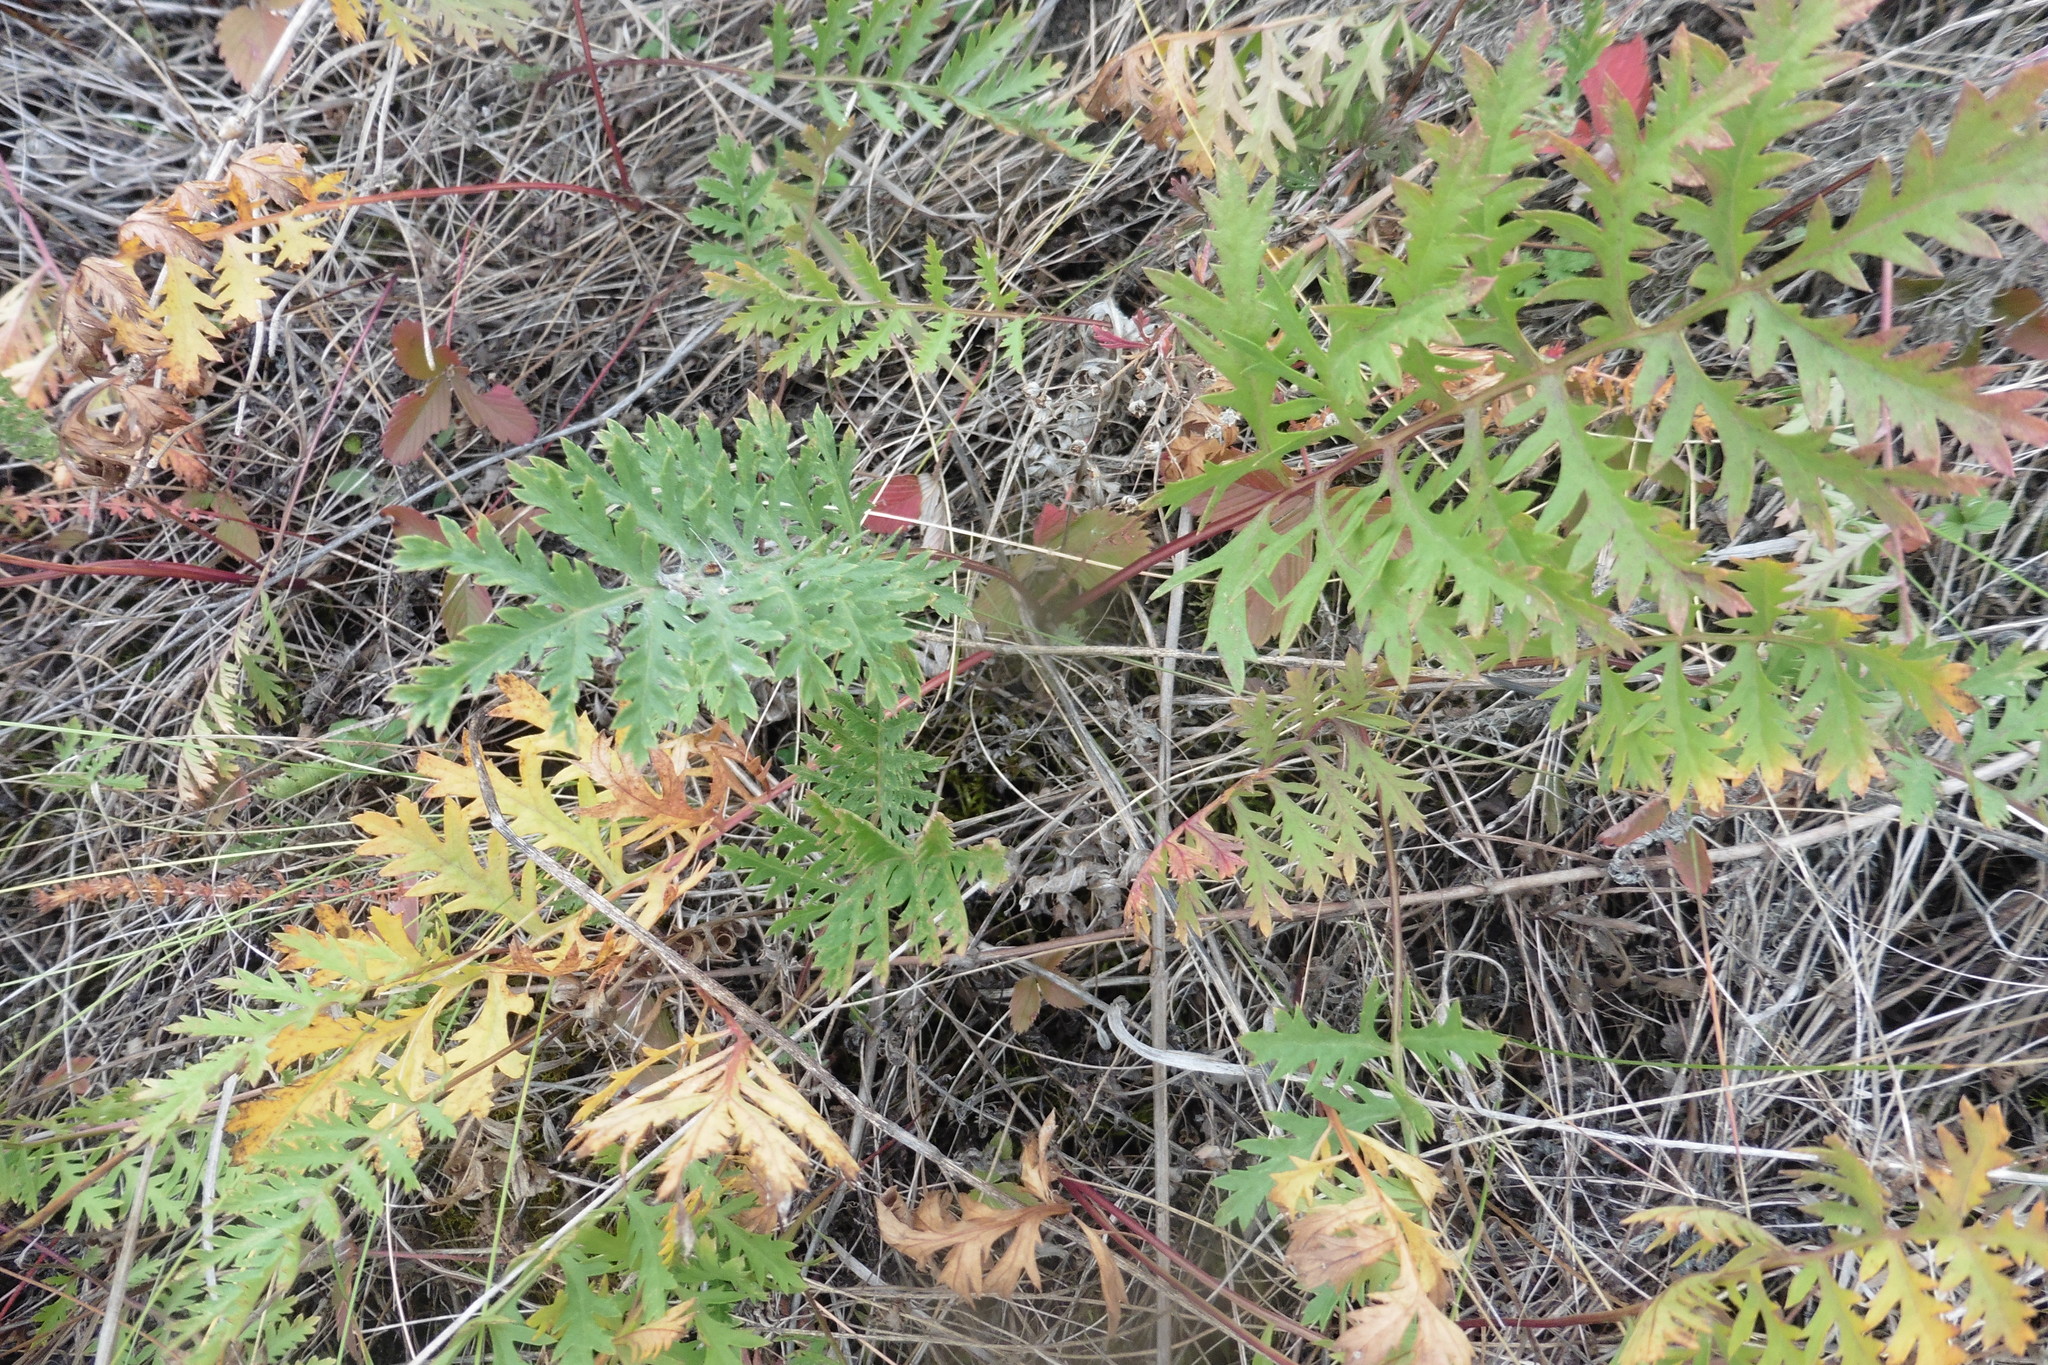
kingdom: Plantae
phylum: Tracheophyta
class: Magnoliopsida
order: Asterales
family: Asteraceae
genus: Artemisia
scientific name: Artemisia latifolia
